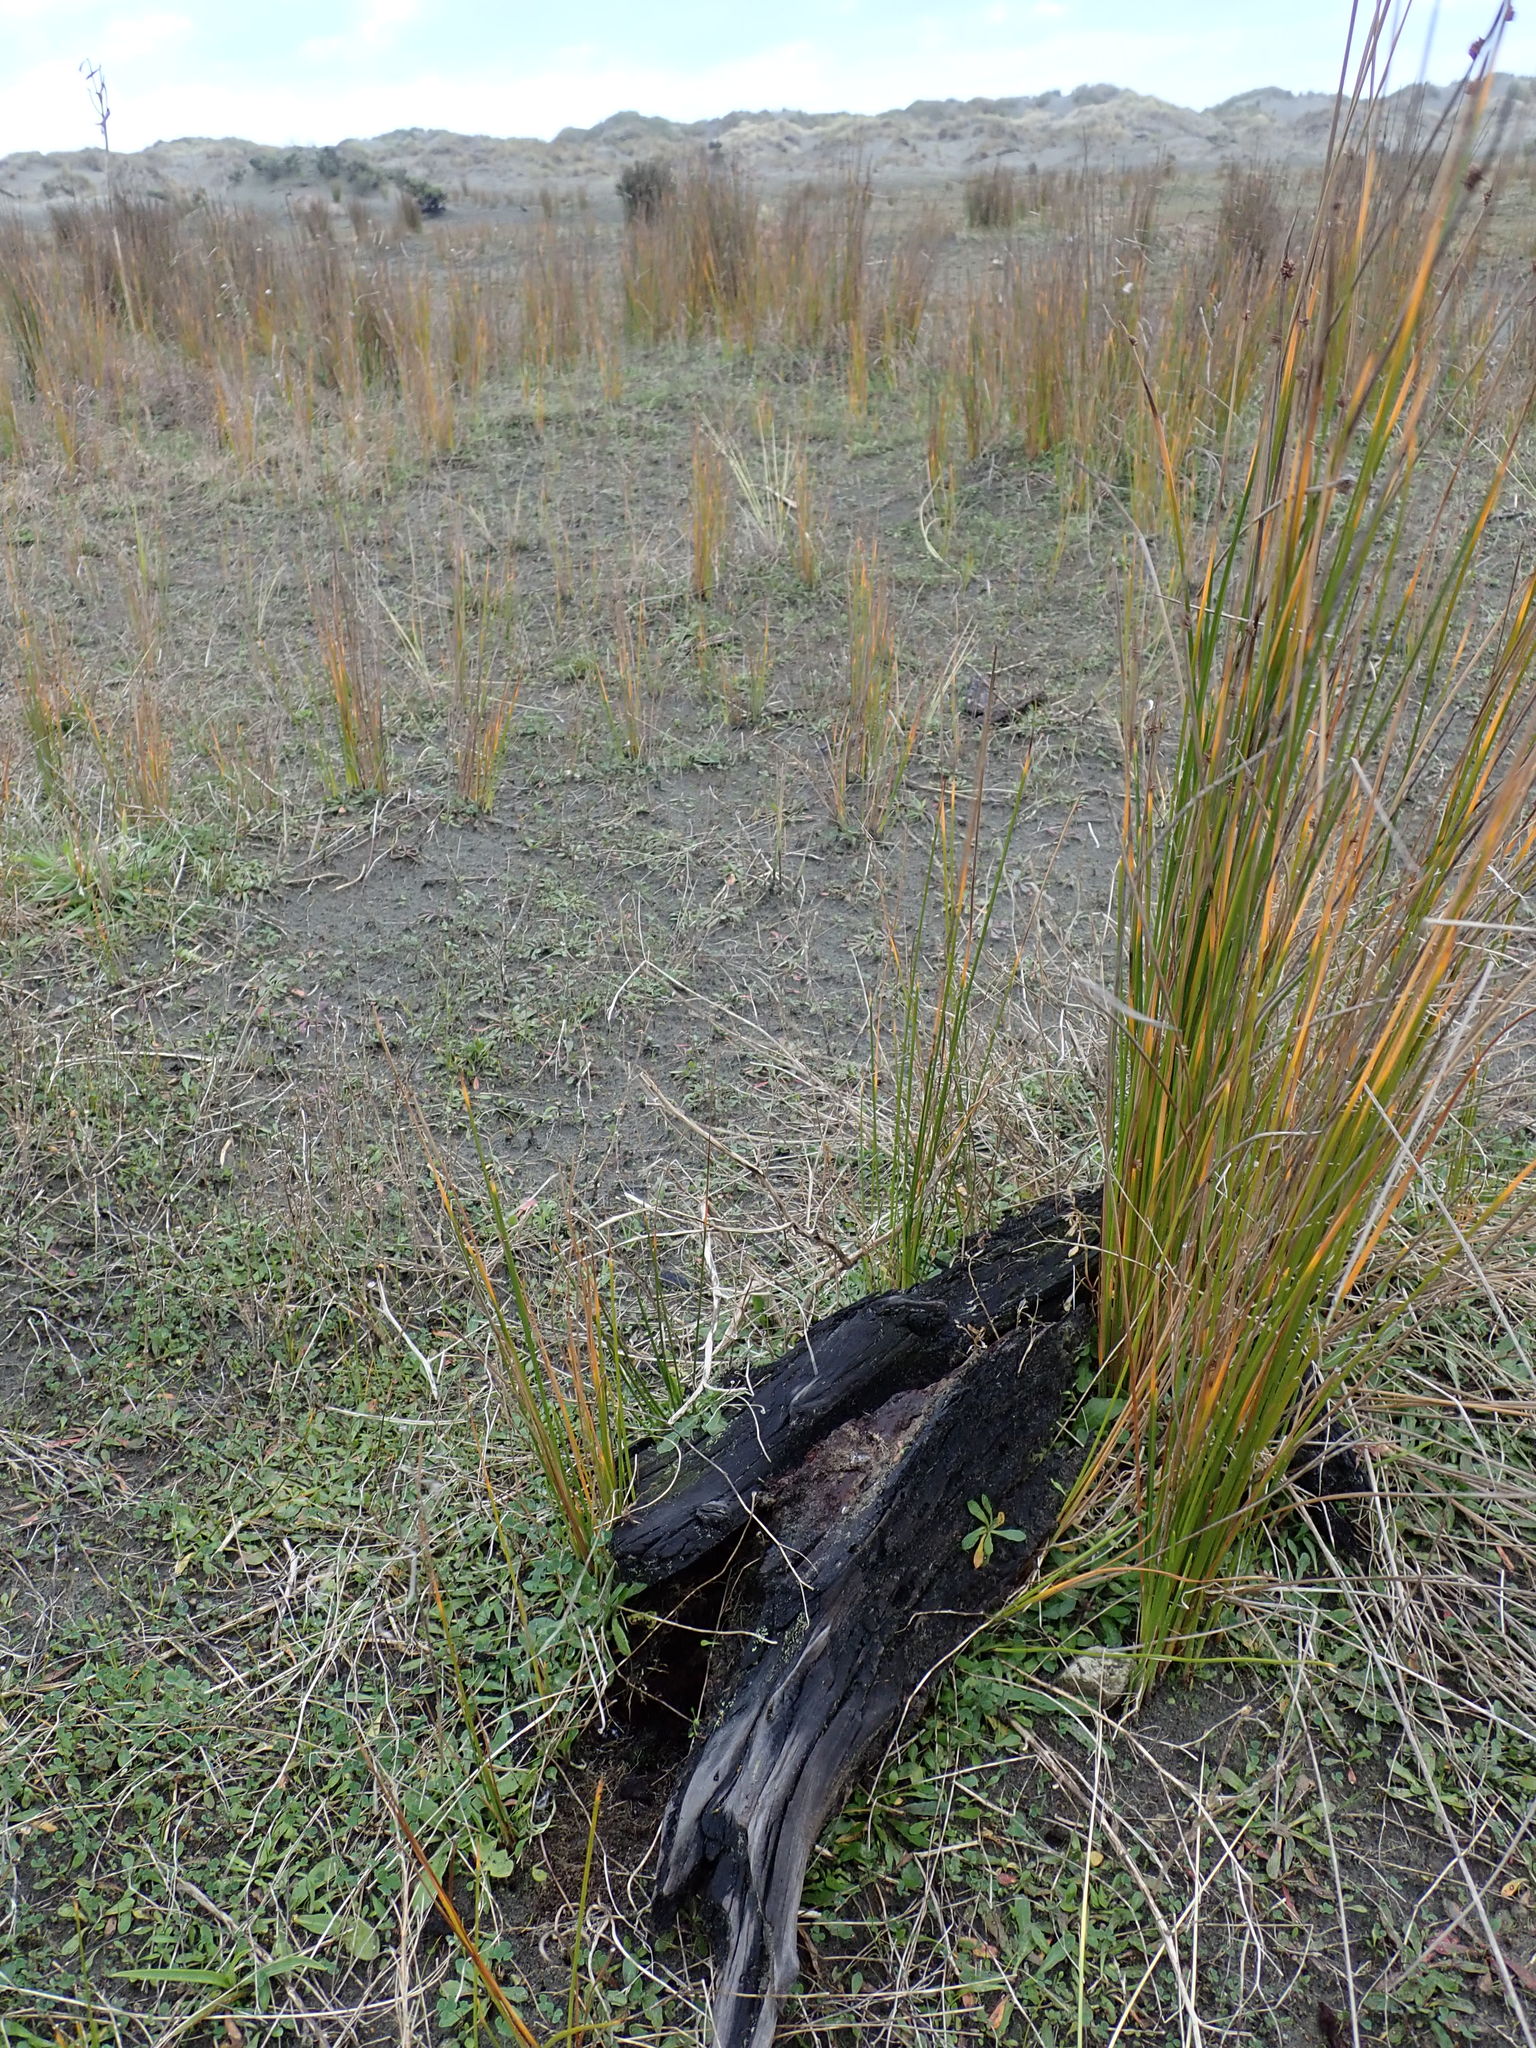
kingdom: Animalia
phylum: Arthropoda
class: Insecta
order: Dermaptera
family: Anisolabididae
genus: Anisolabis
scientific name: Anisolabis littorea
